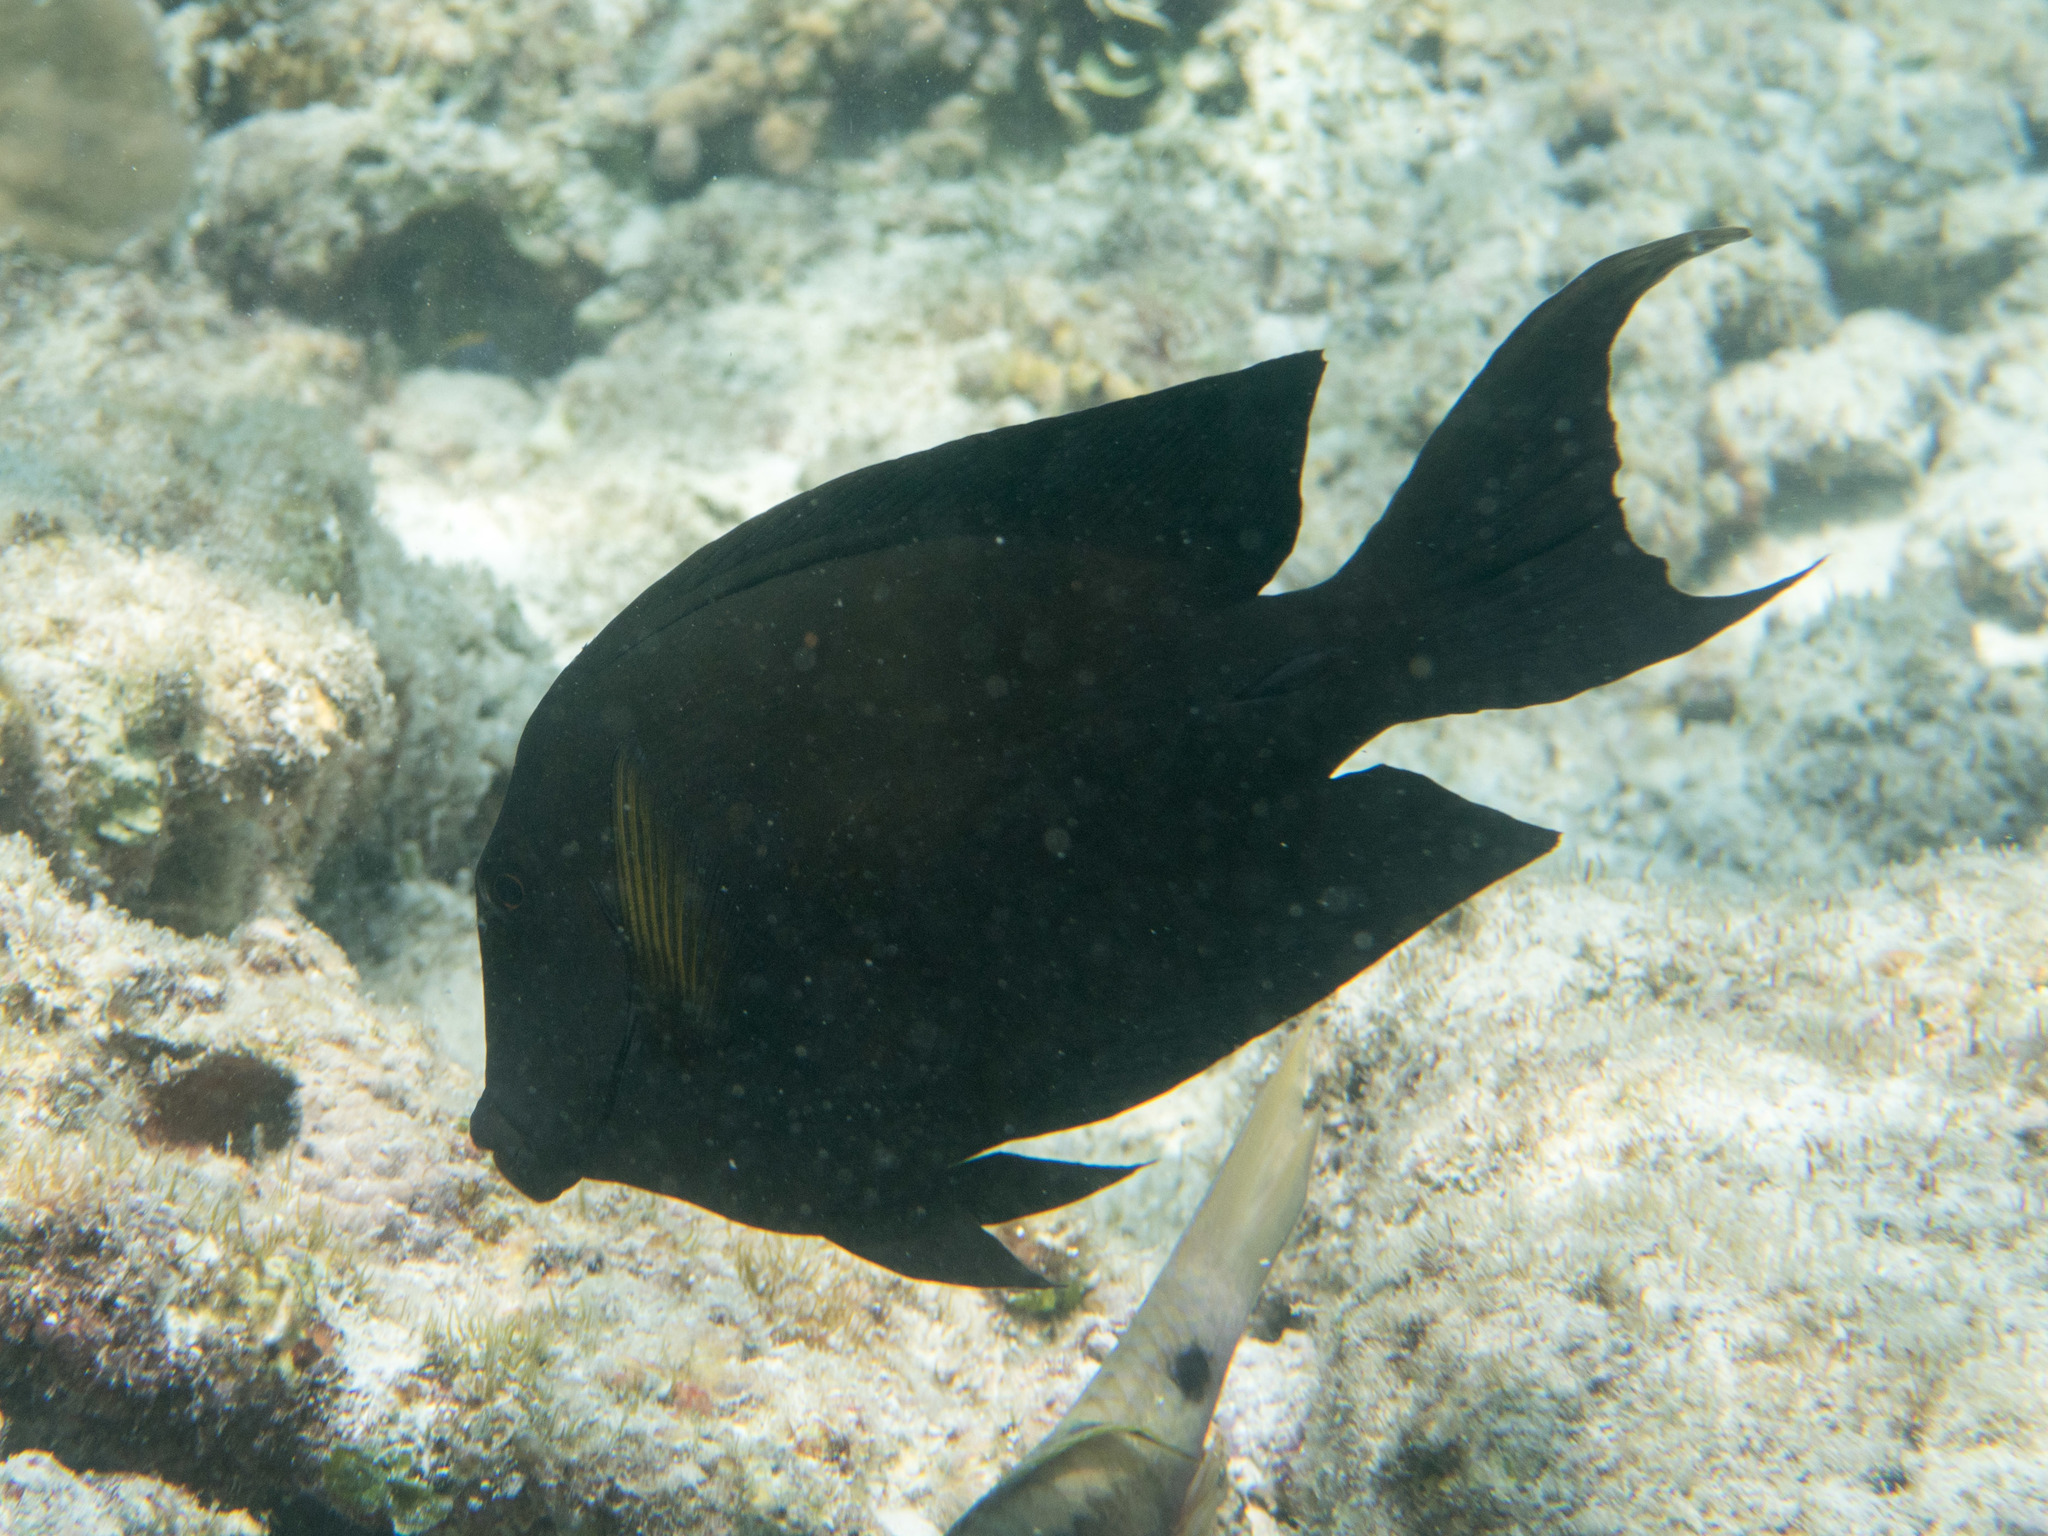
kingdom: Animalia
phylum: Chordata
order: Perciformes
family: Acanthuridae
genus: Ctenochaetus
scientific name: Ctenochaetus striatus
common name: Bristle-toothed surgeonfish
